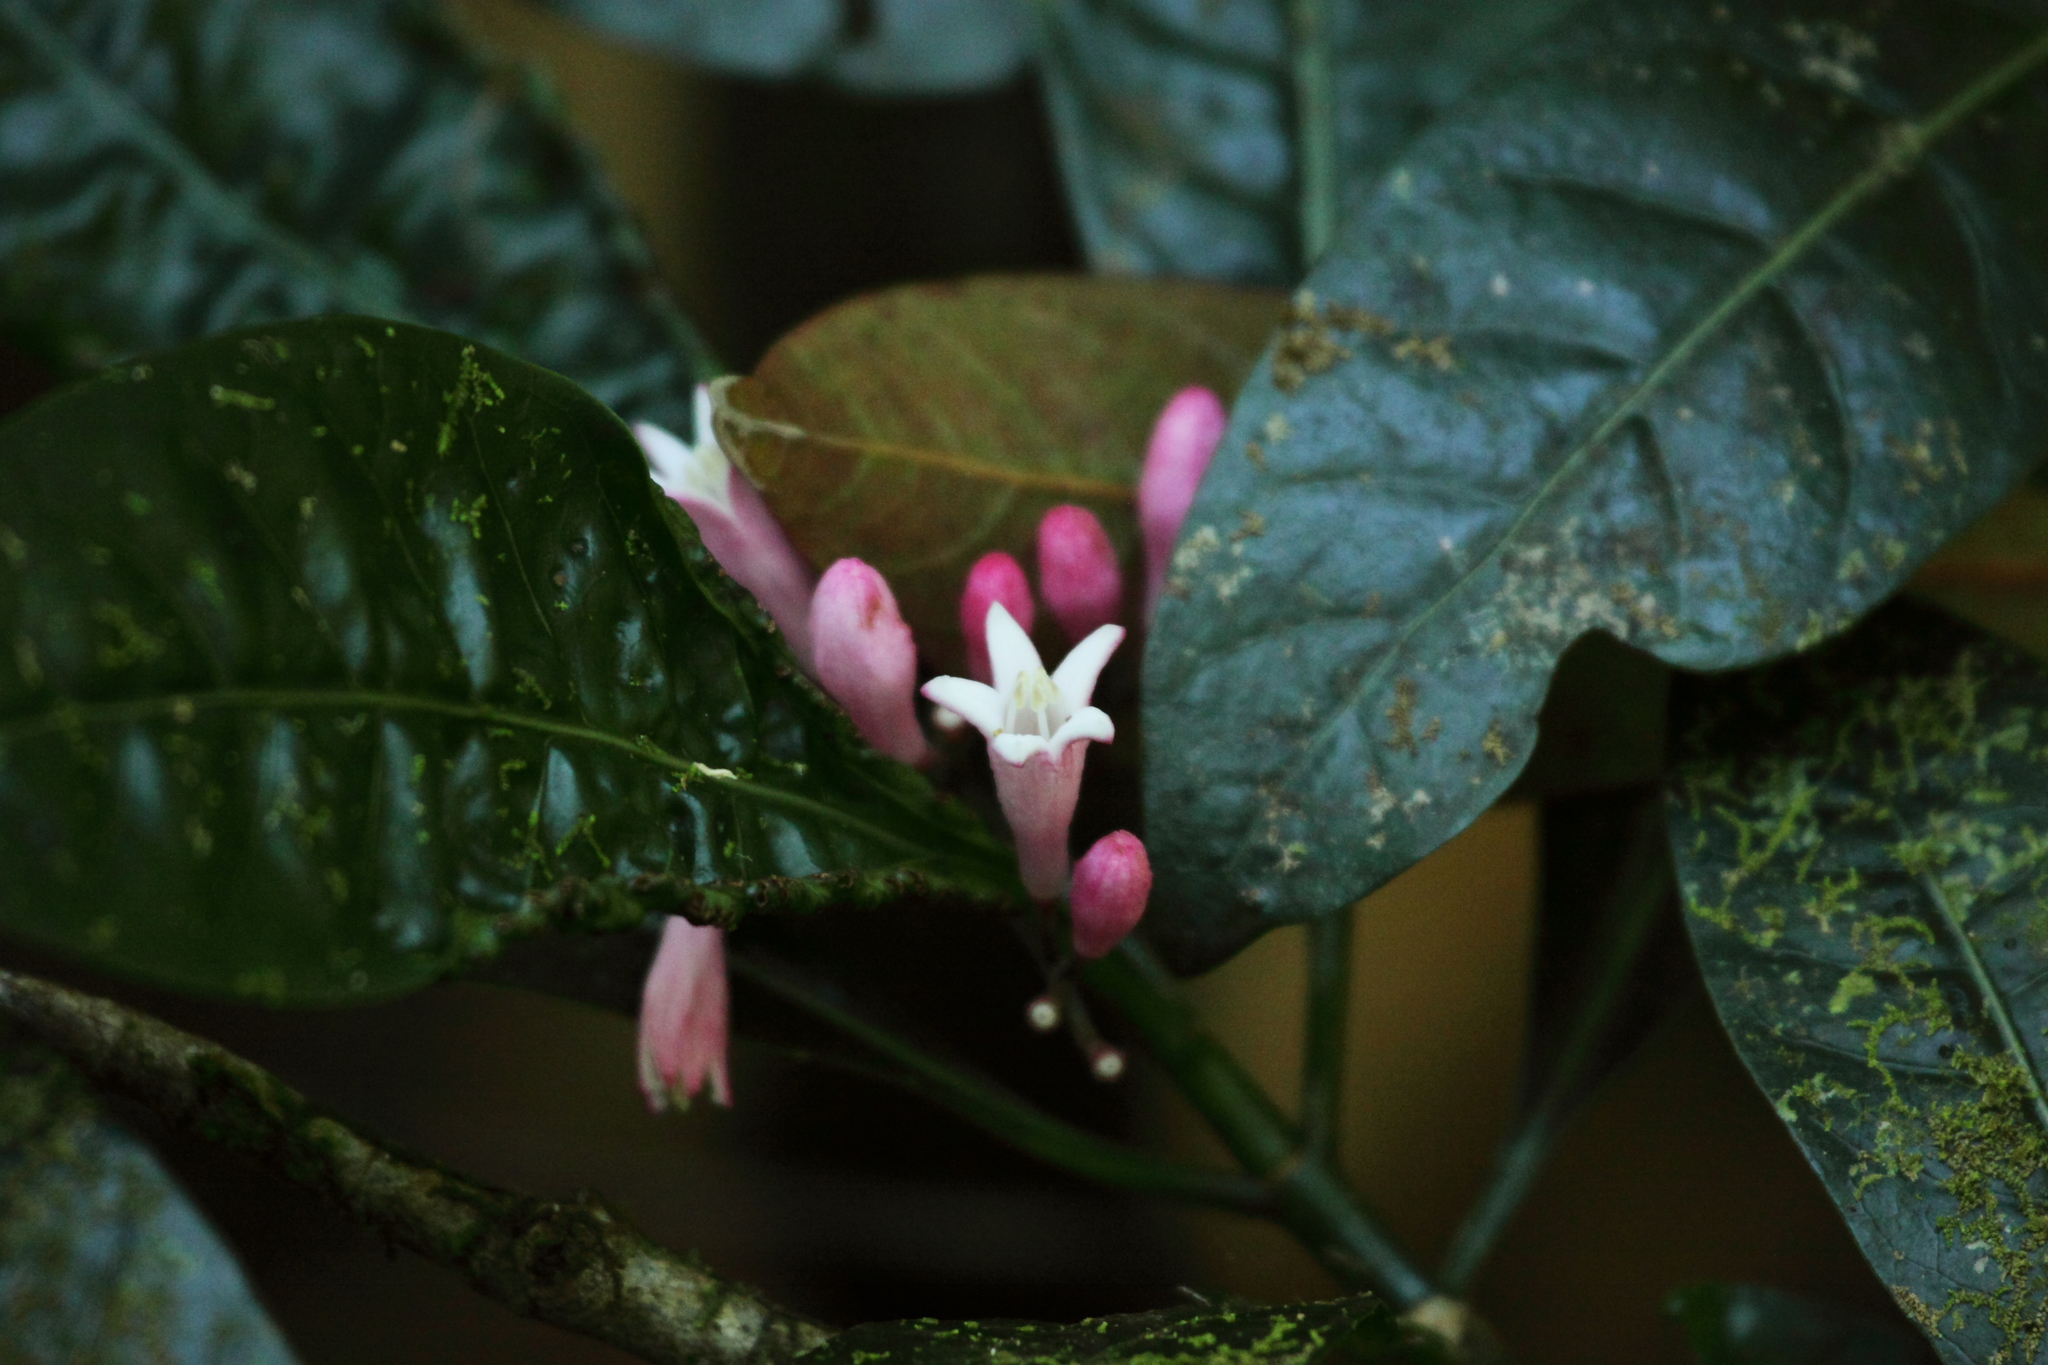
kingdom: Plantae
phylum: Tracheophyta
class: Magnoliopsida
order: Gentianales
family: Rubiaceae
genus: Psychotria
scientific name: Psychotria gabriellae
